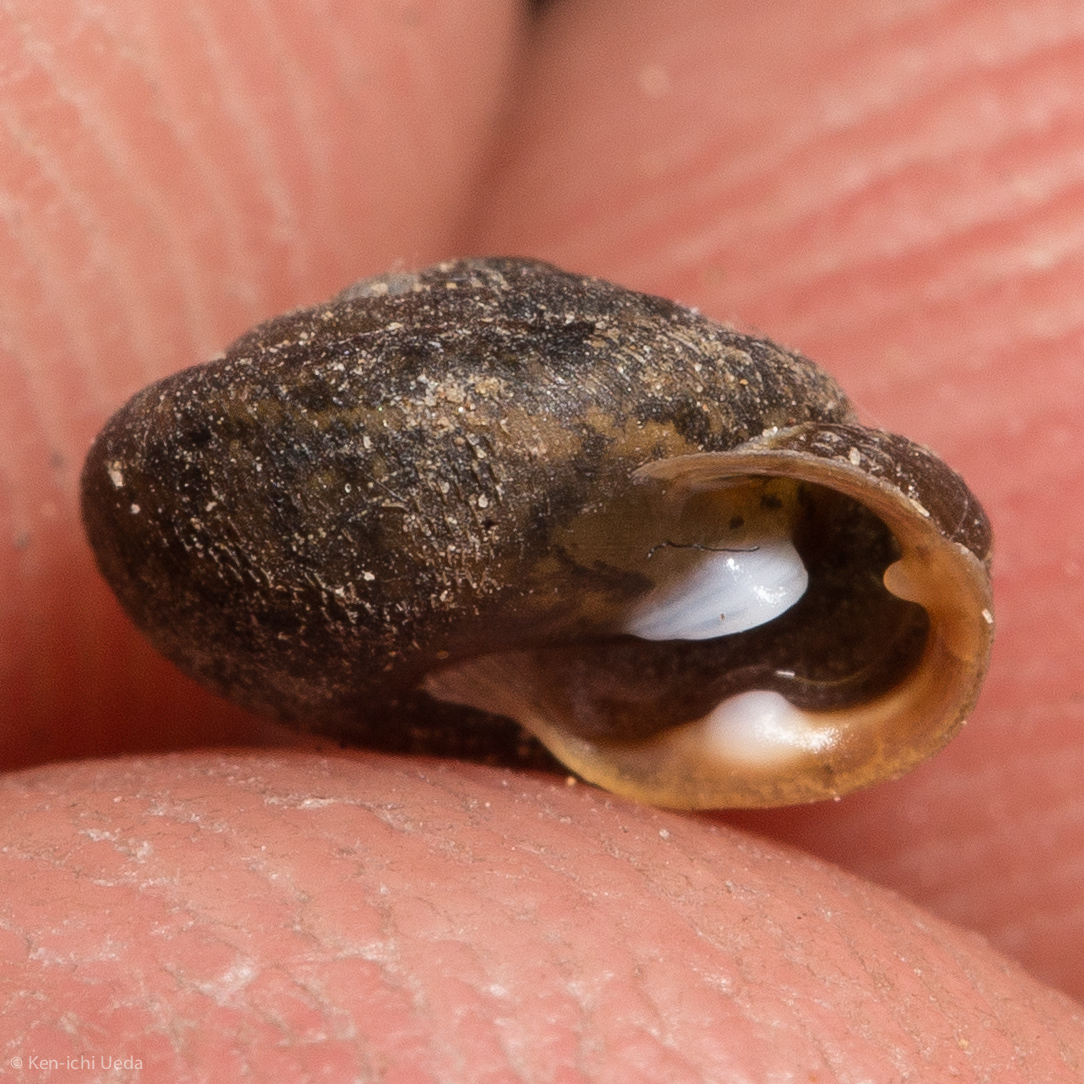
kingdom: Animalia
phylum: Mollusca
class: Gastropoda
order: Stylommatophora
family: Polygyridae
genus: Trilobopsis
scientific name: Trilobopsis loricata
